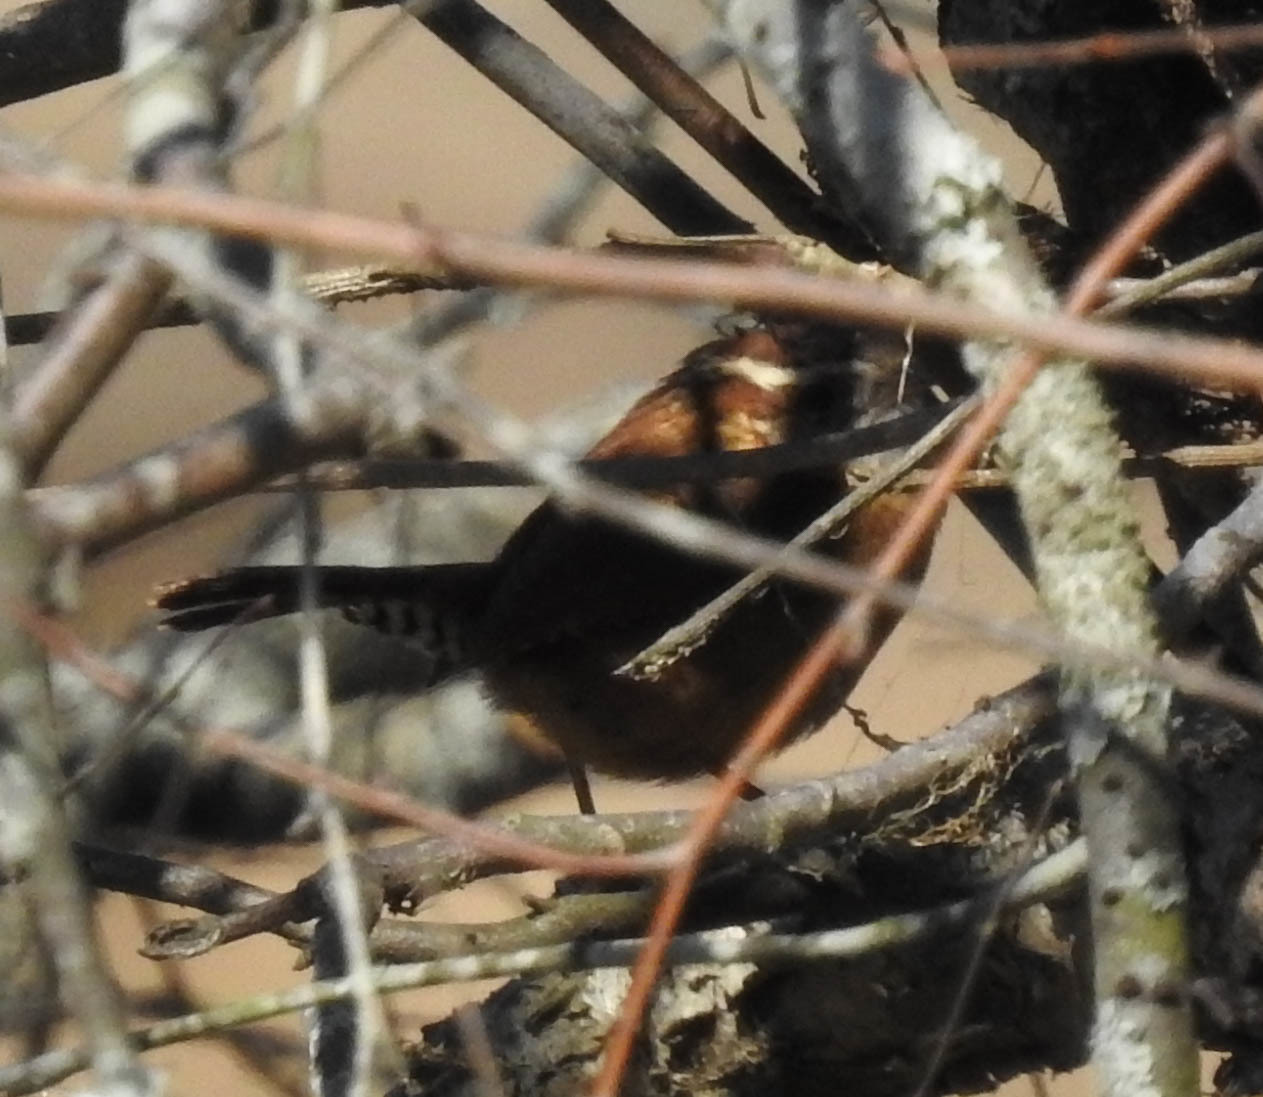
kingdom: Animalia
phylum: Chordata
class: Aves
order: Passeriformes
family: Troglodytidae
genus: Thryothorus
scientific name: Thryothorus ludovicianus
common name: Carolina wren
